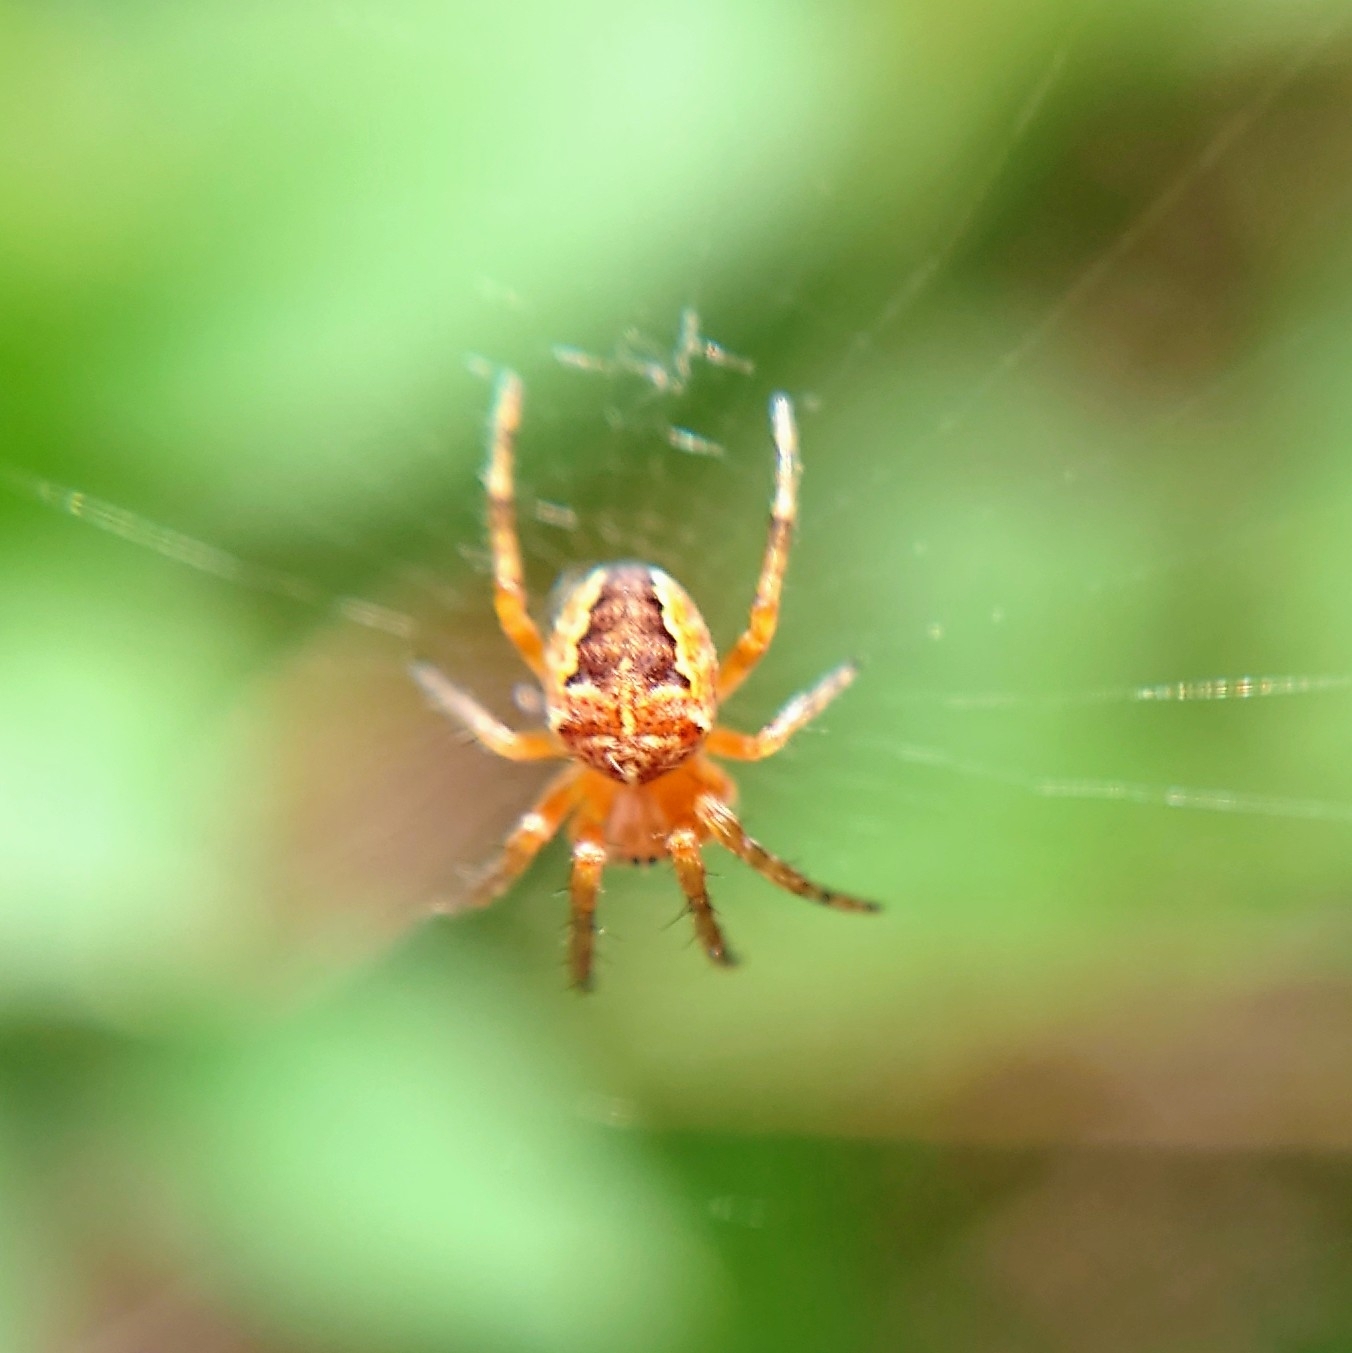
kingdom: Animalia
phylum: Arthropoda
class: Arachnida
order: Araneae
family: Araneidae
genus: Araneus
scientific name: Araneus diadematus
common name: Cross orbweaver
